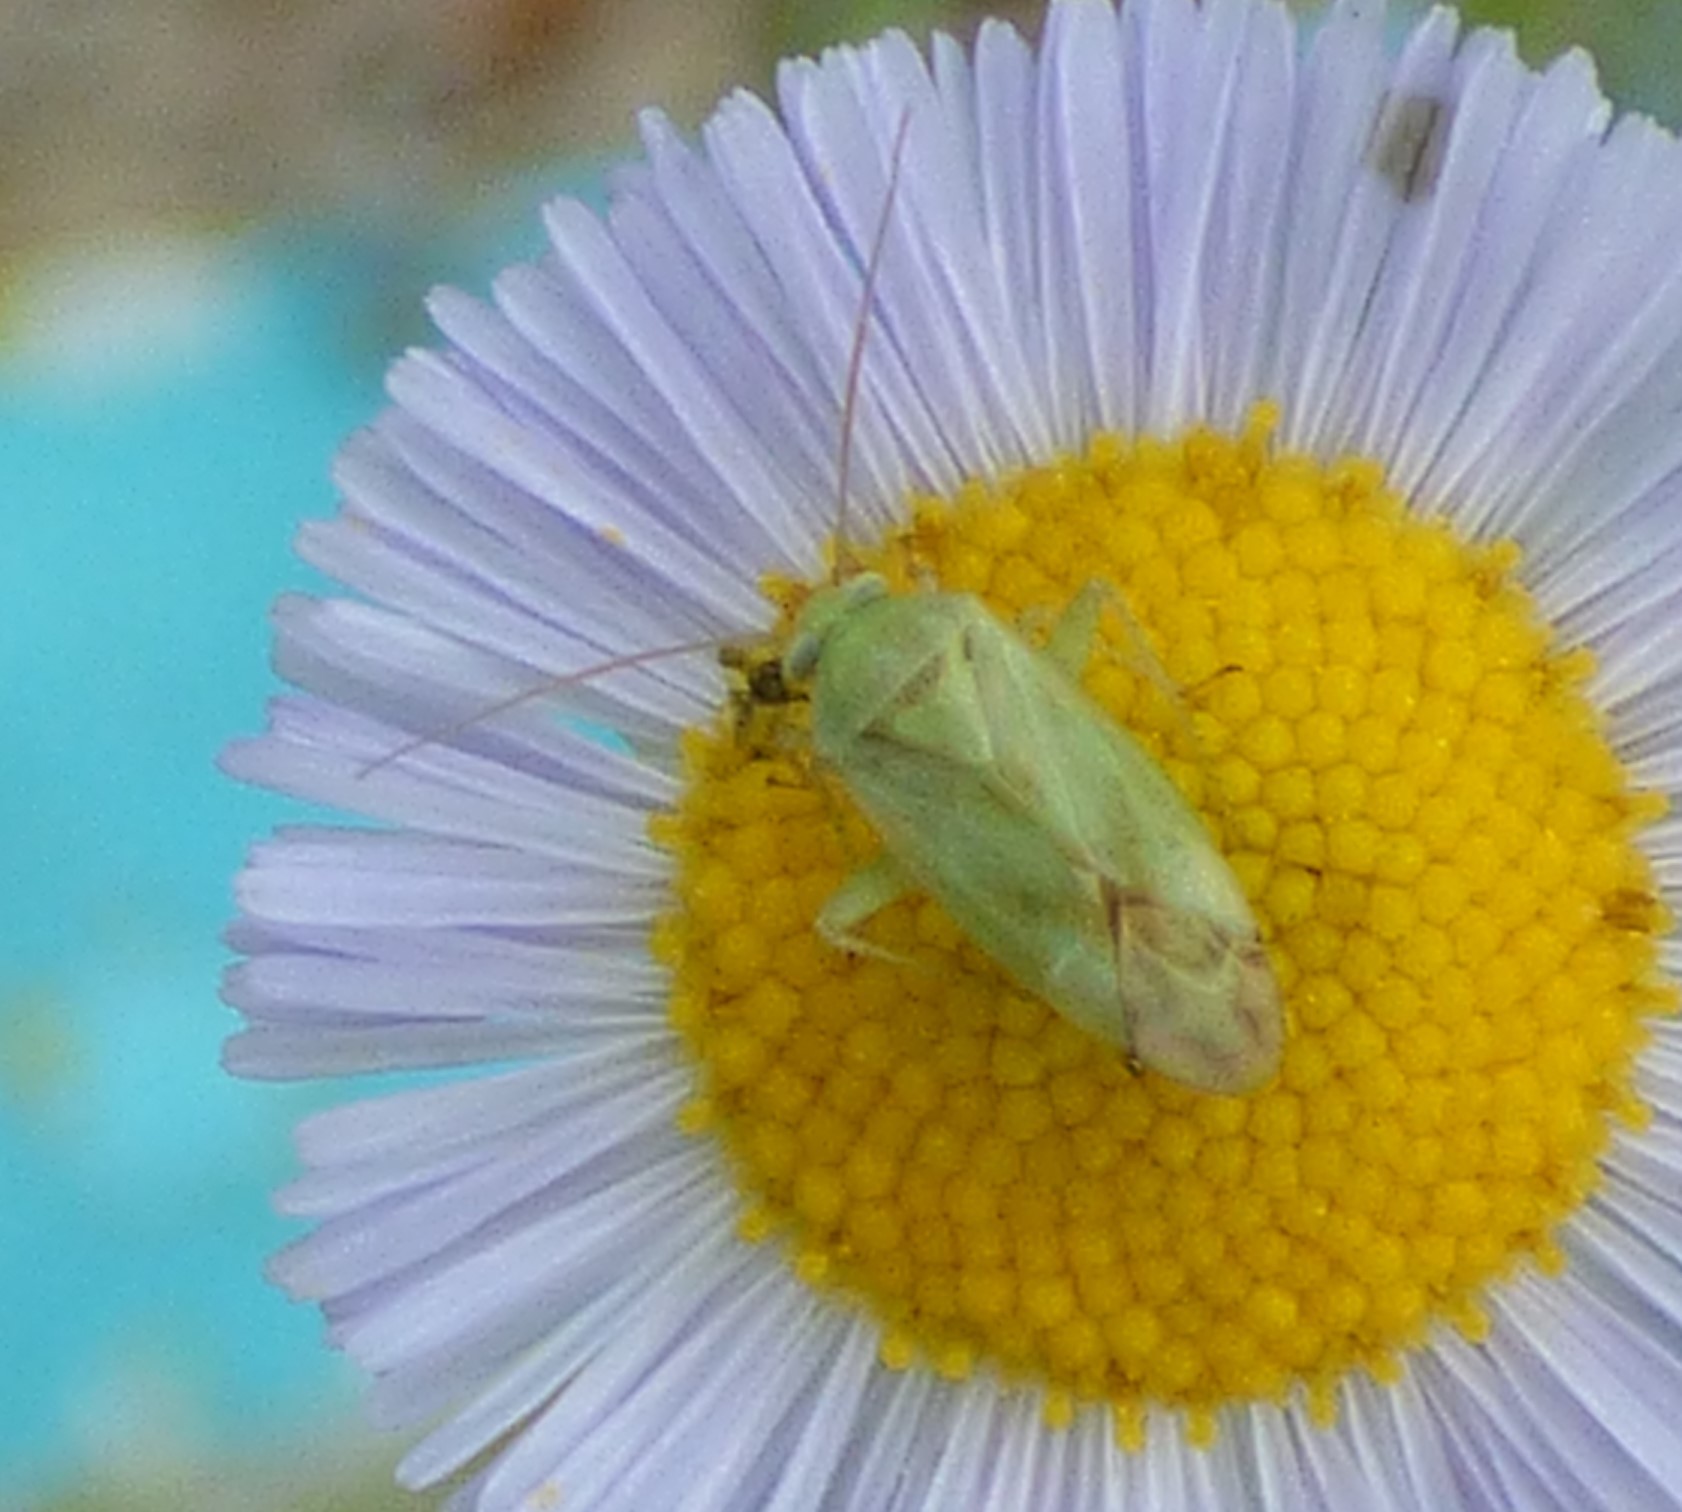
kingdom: Animalia
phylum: Arthropoda
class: Insecta
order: Hemiptera
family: Miridae
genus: Taylorilygus
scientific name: Taylorilygus apicalis
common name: Plant bug
